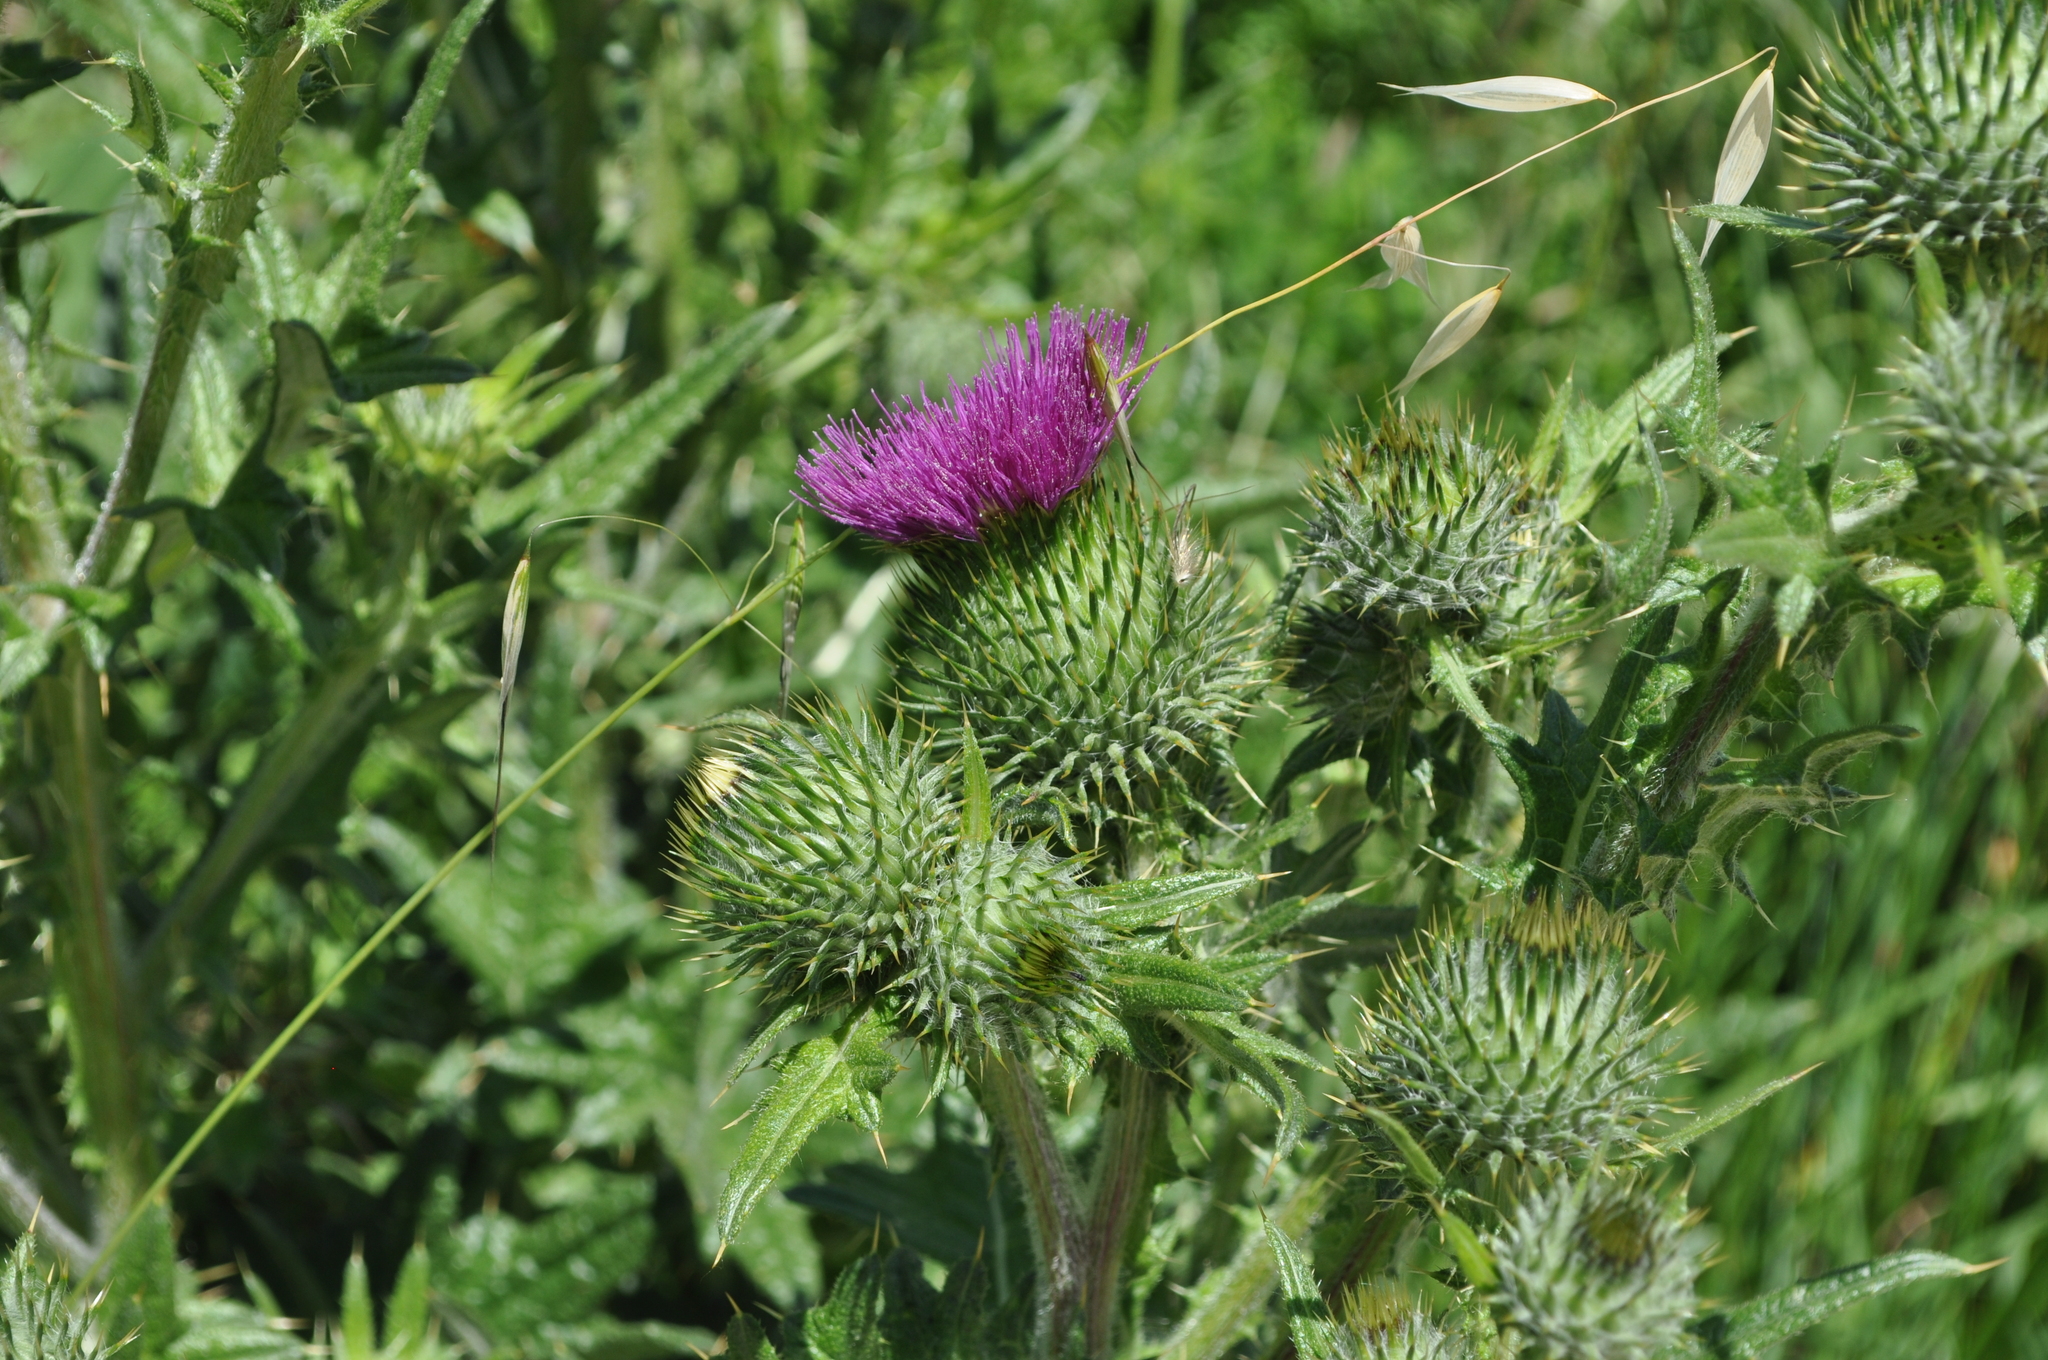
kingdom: Plantae
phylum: Tracheophyta
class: Magnoliopsida
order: Asterales
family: Asteraceae
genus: Cirsium
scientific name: Cirsium vulgare
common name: Bull thistle
